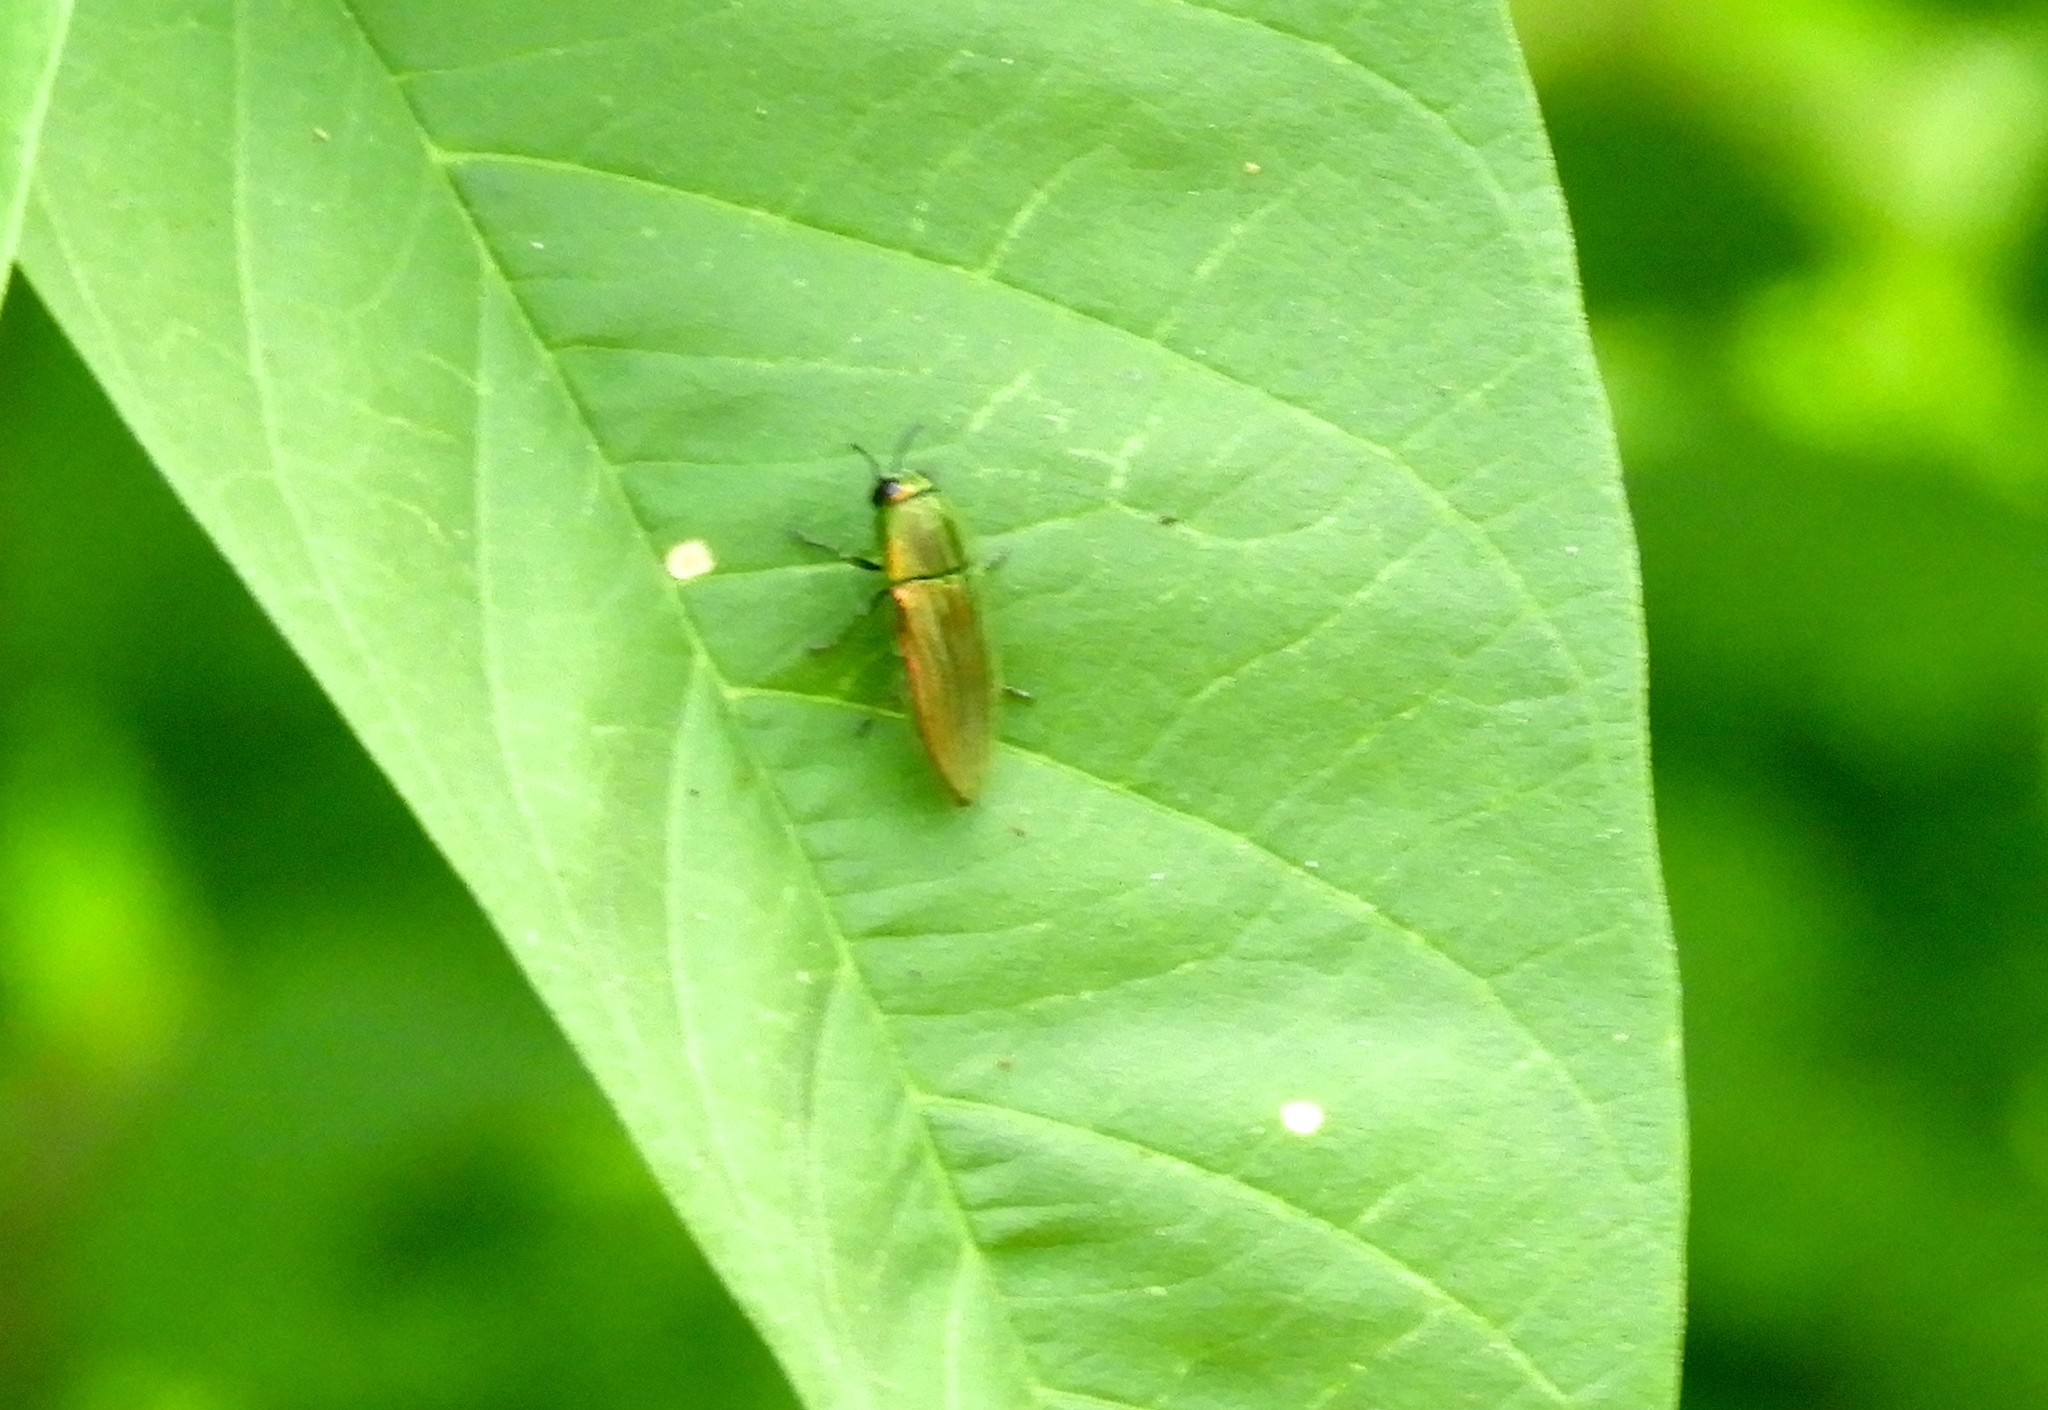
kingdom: Animalia
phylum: Arthropoda
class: Insecta
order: Coleoptera
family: Buprestidae
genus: Agaeocera
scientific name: Agaeocera scintillans
